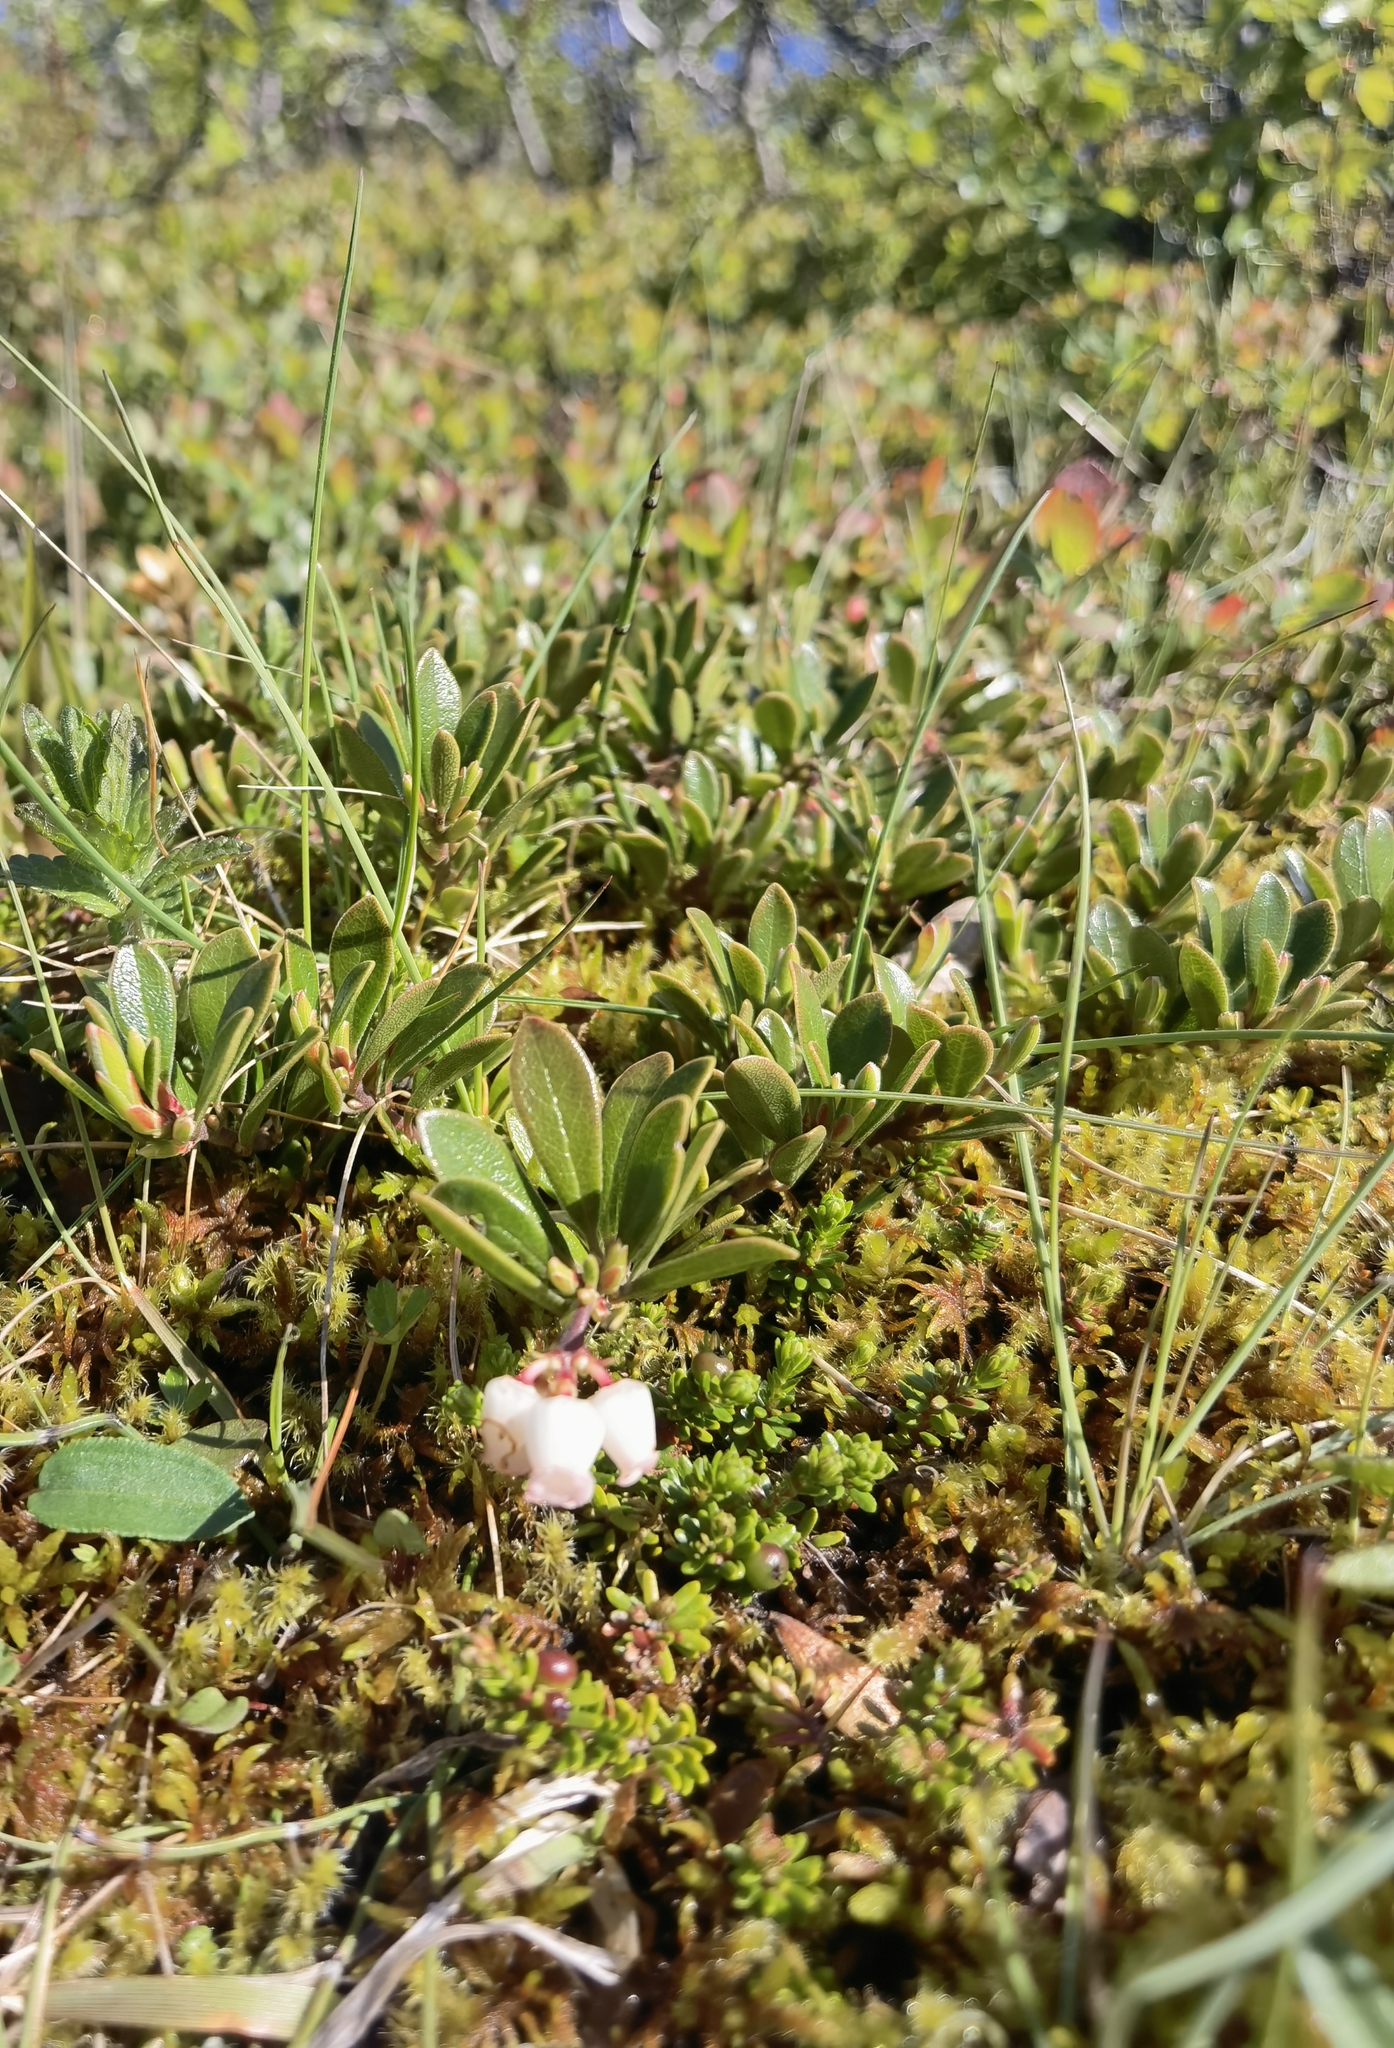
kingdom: Plantae
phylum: Tracheophyta
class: Magnoliopsida
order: Ericales
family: Ericaceae
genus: Arctostaphylos
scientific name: Arctostaphylos uva-ursi
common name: Bearberry
